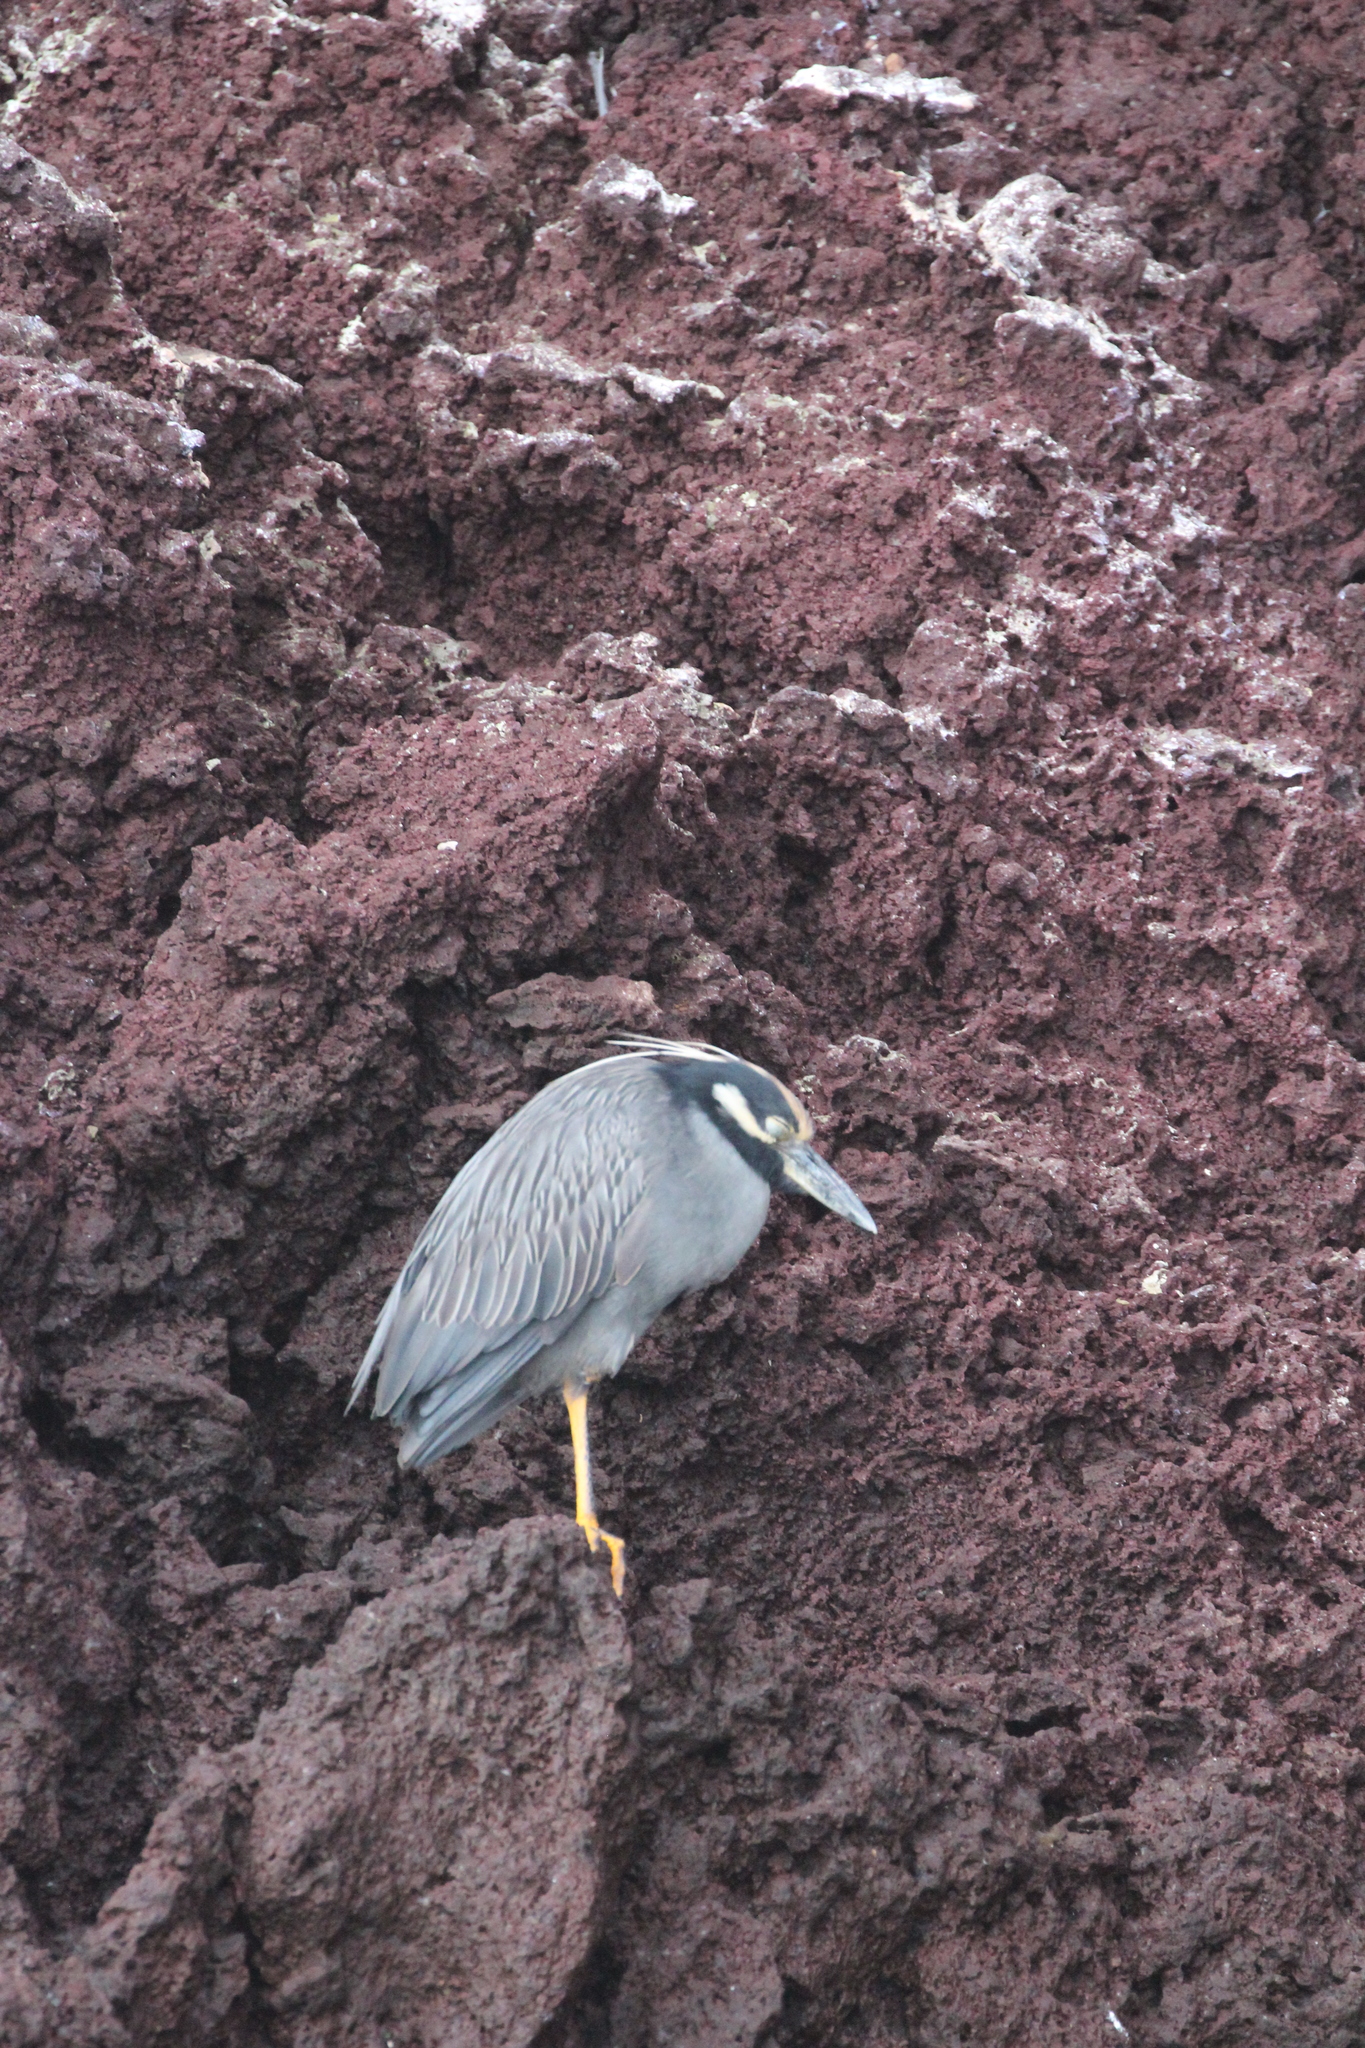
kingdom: Animalia
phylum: Chordata
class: Aves
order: Pelecaniformes
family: Ardeidae
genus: Nyctanassa
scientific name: Nyctanassa violacea
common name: Yellow-crowned night heron
